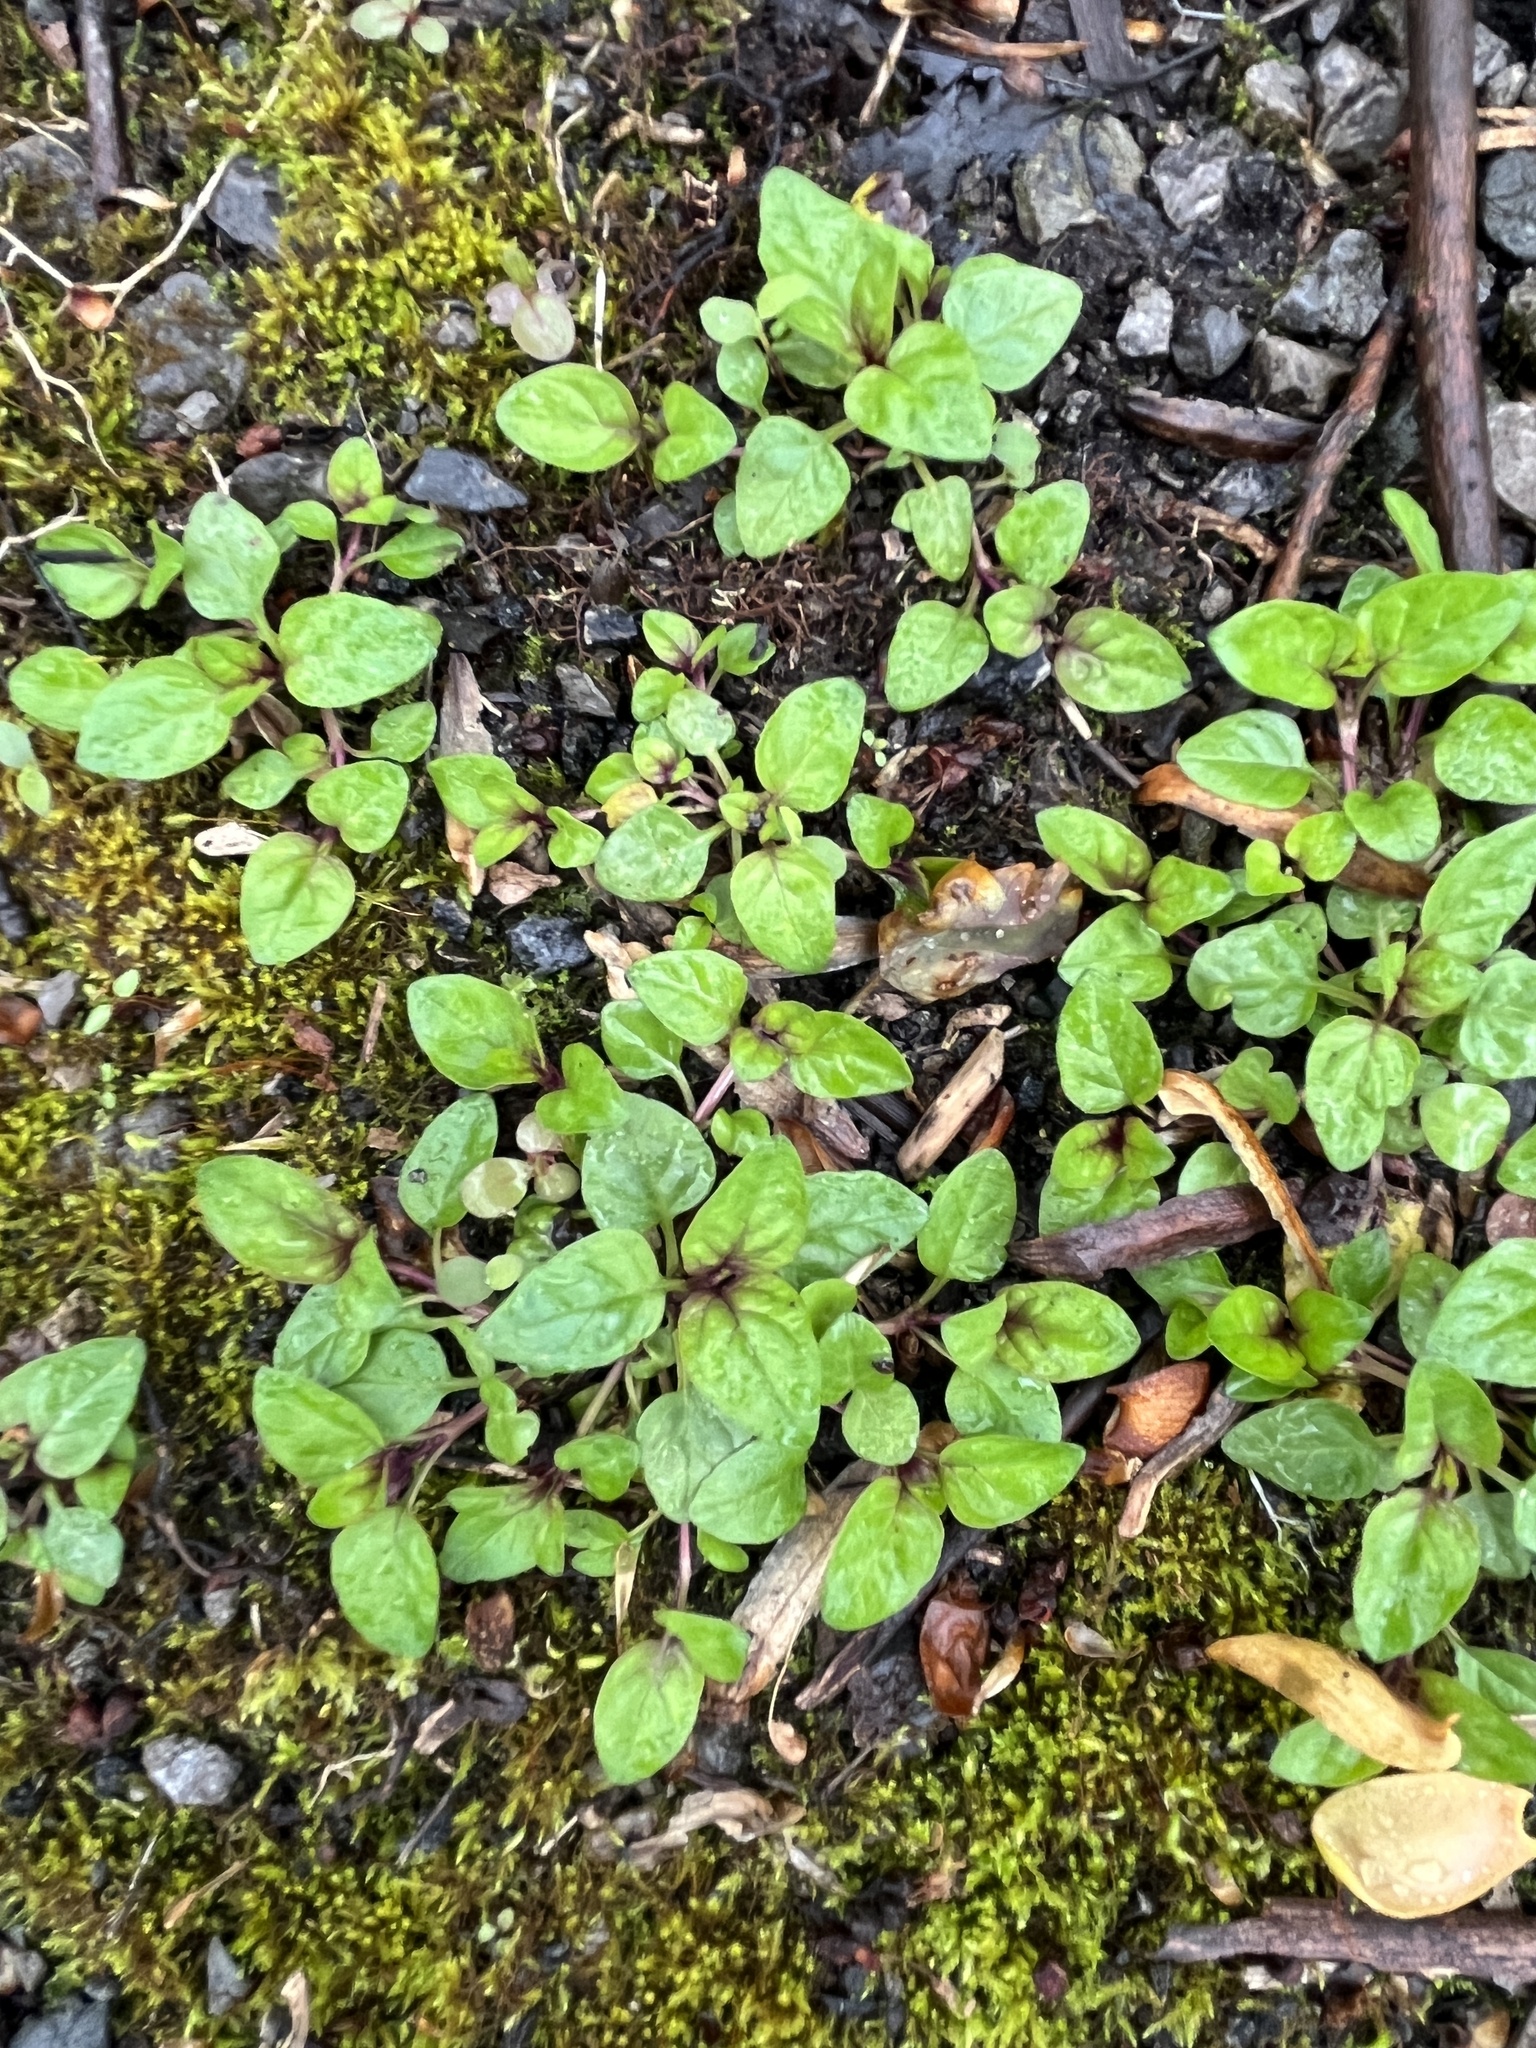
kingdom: Plantae
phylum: Tracheophyta
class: Magnoliopsida
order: Lamiales
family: Lamiaceae
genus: Prunella
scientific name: Prunella vulgaris
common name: Heal-all
